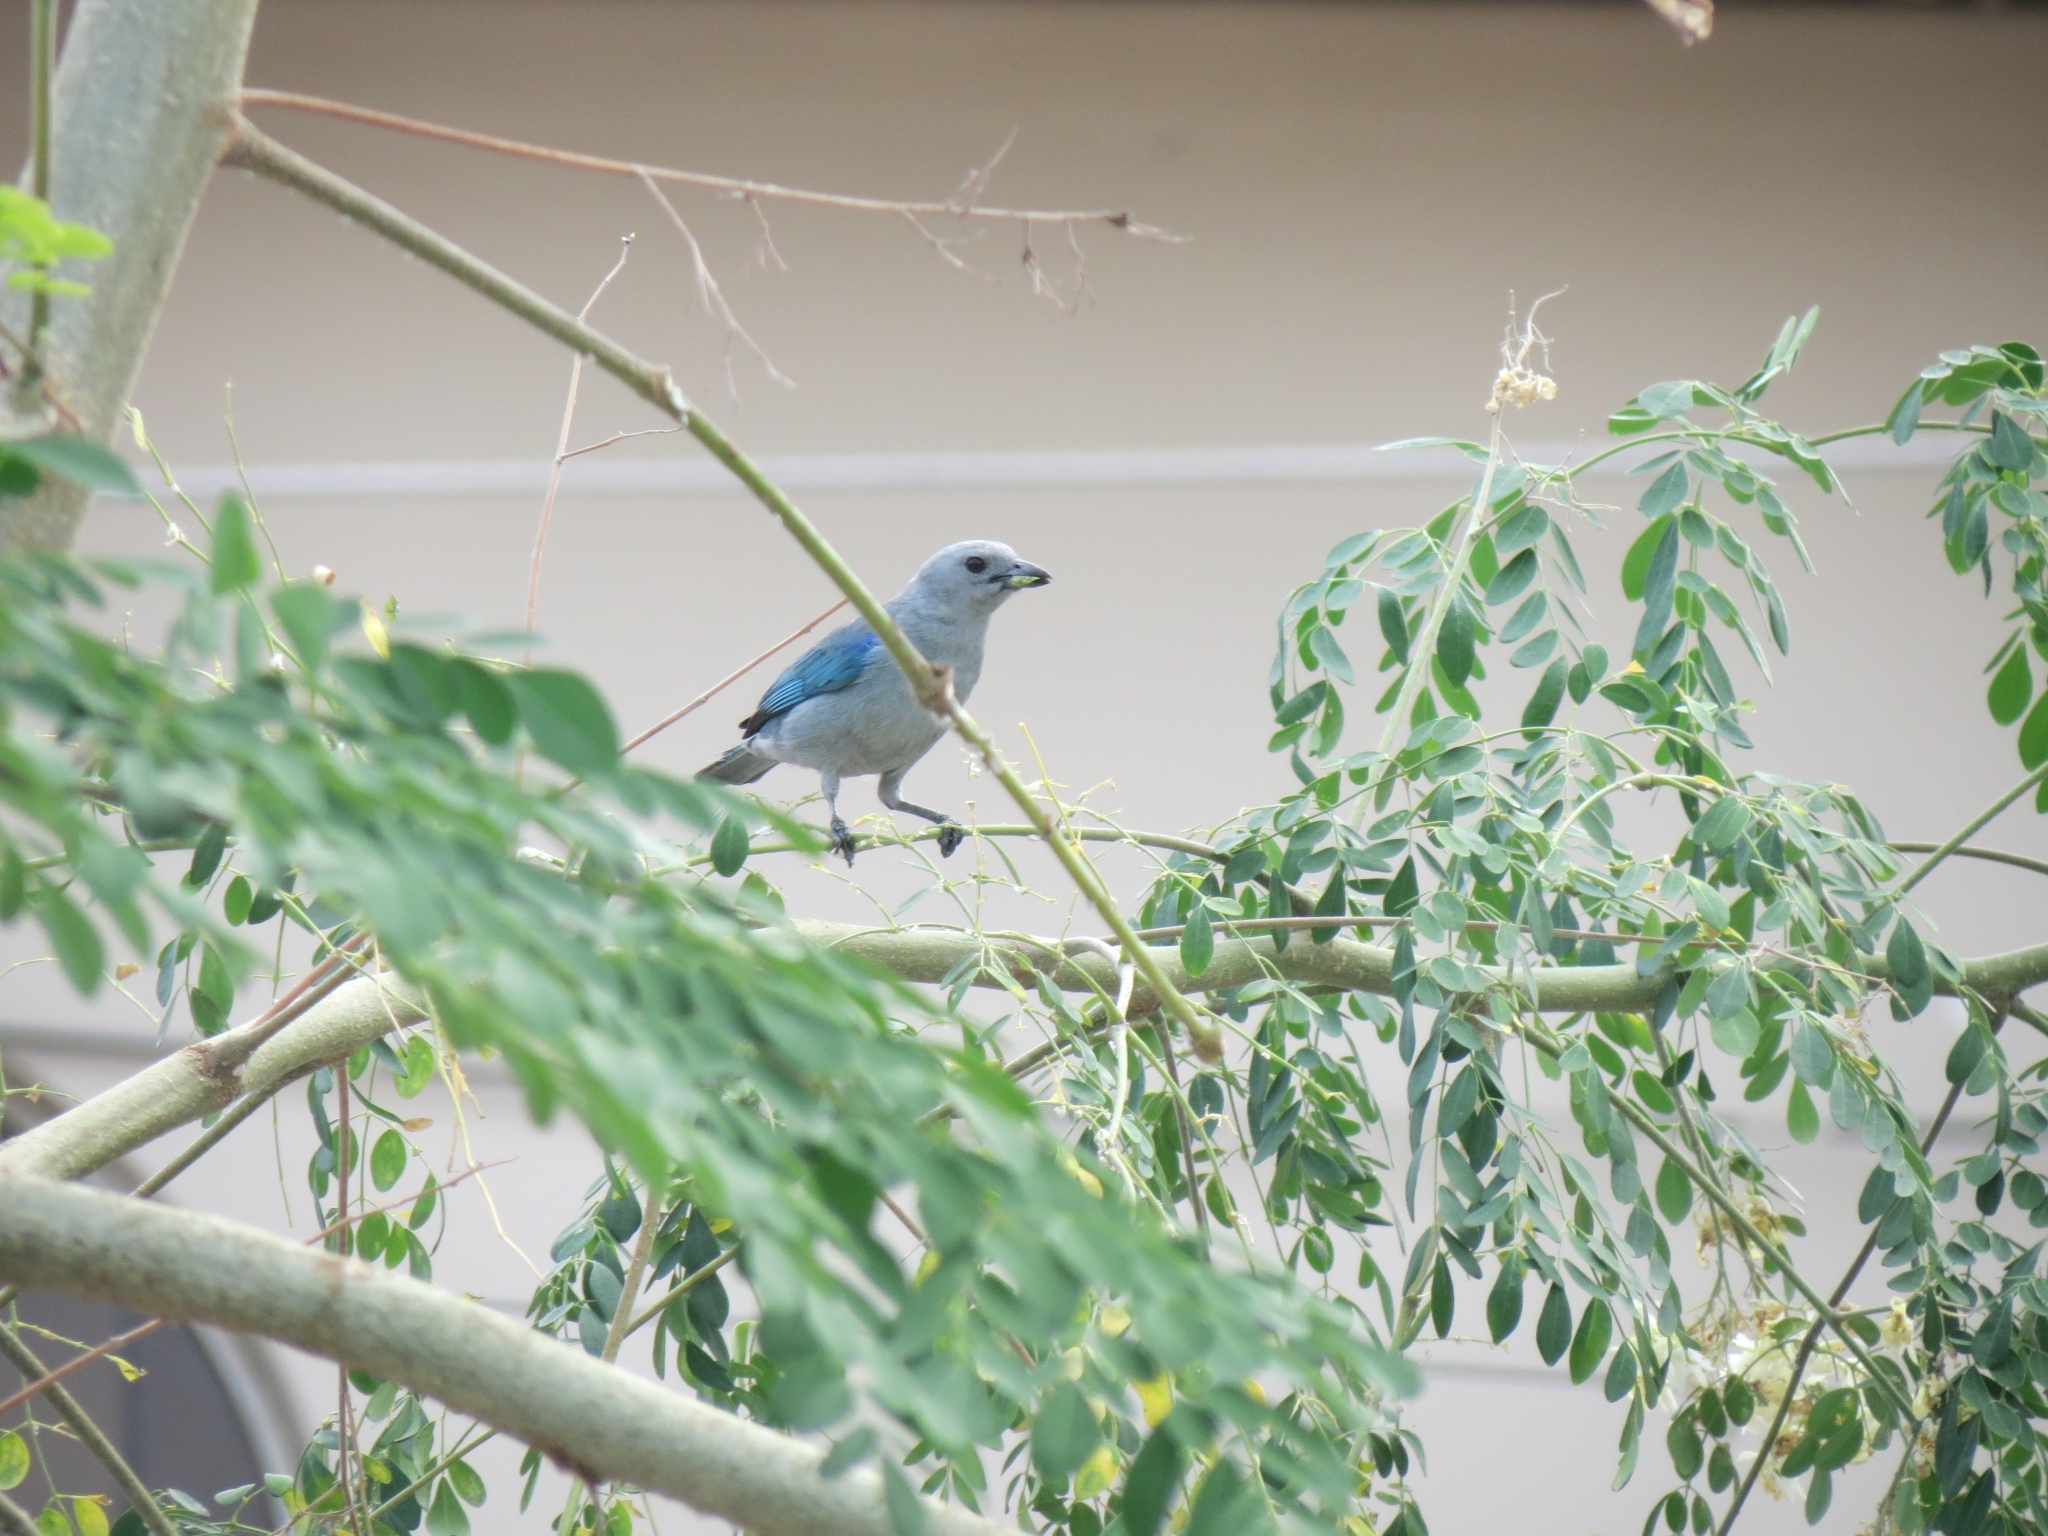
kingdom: Animalia
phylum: Chordata
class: Aves
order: Passeriformes
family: Thraupidae
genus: Thraupis
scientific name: Thraupis episcopus
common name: Blue-grey tanager
